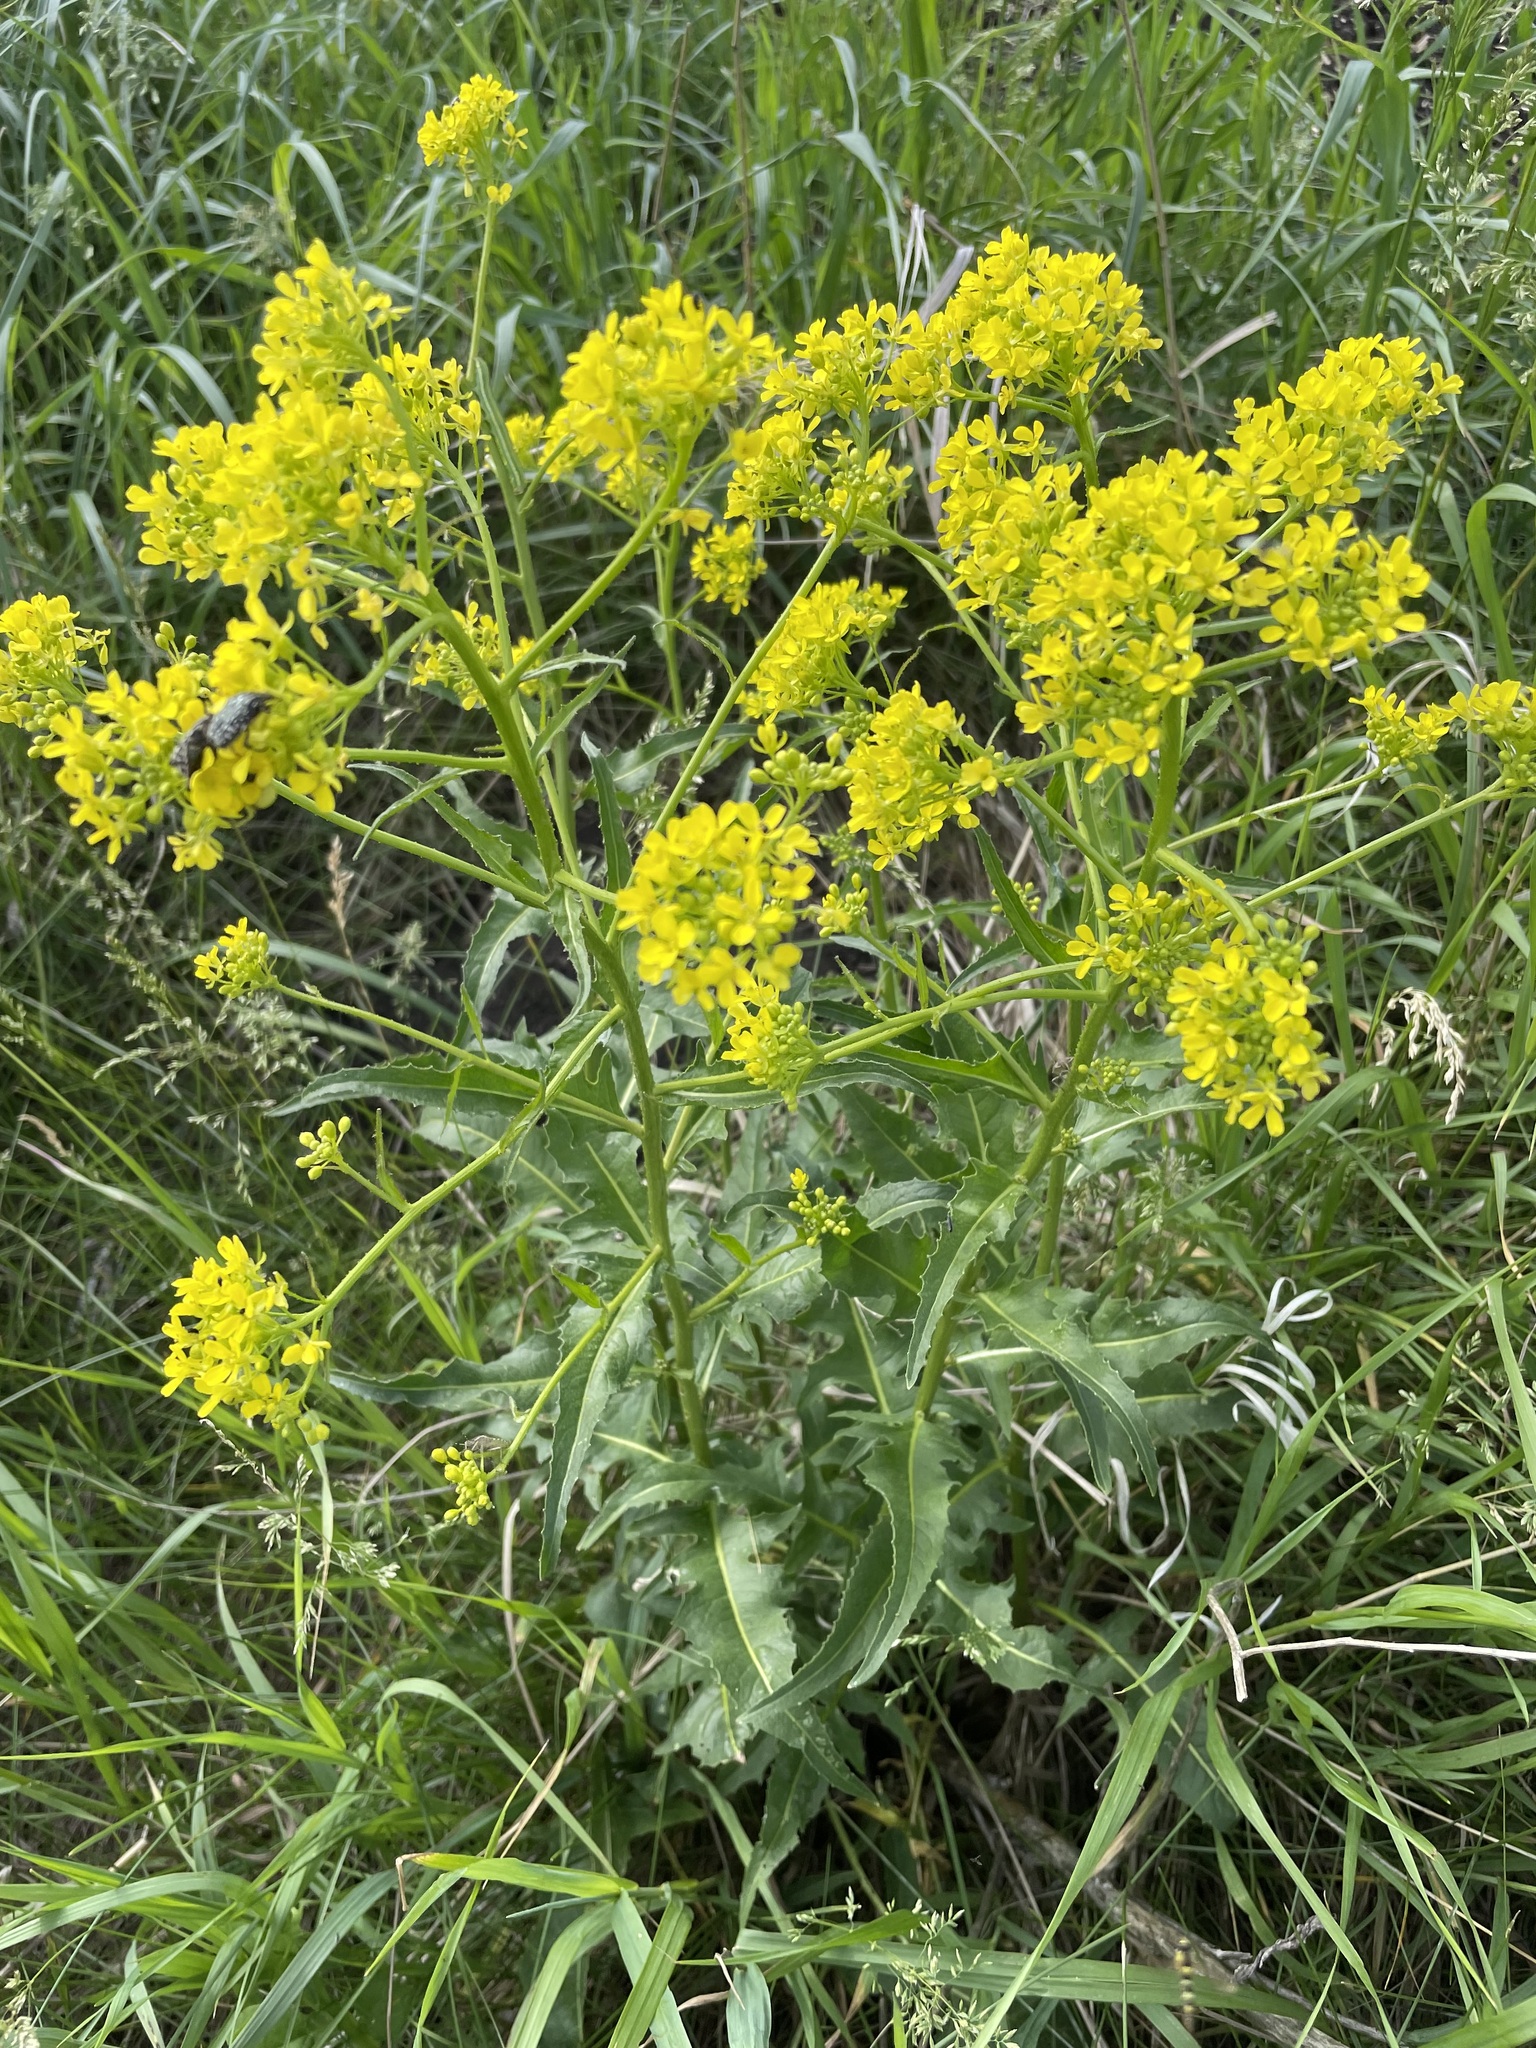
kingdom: Plantae
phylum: Tracheophyta
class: Magnoliopsida
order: Brassicales
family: Brassicaceae
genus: Bunias
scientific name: Bunias orientalis
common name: Warty-cabbage
